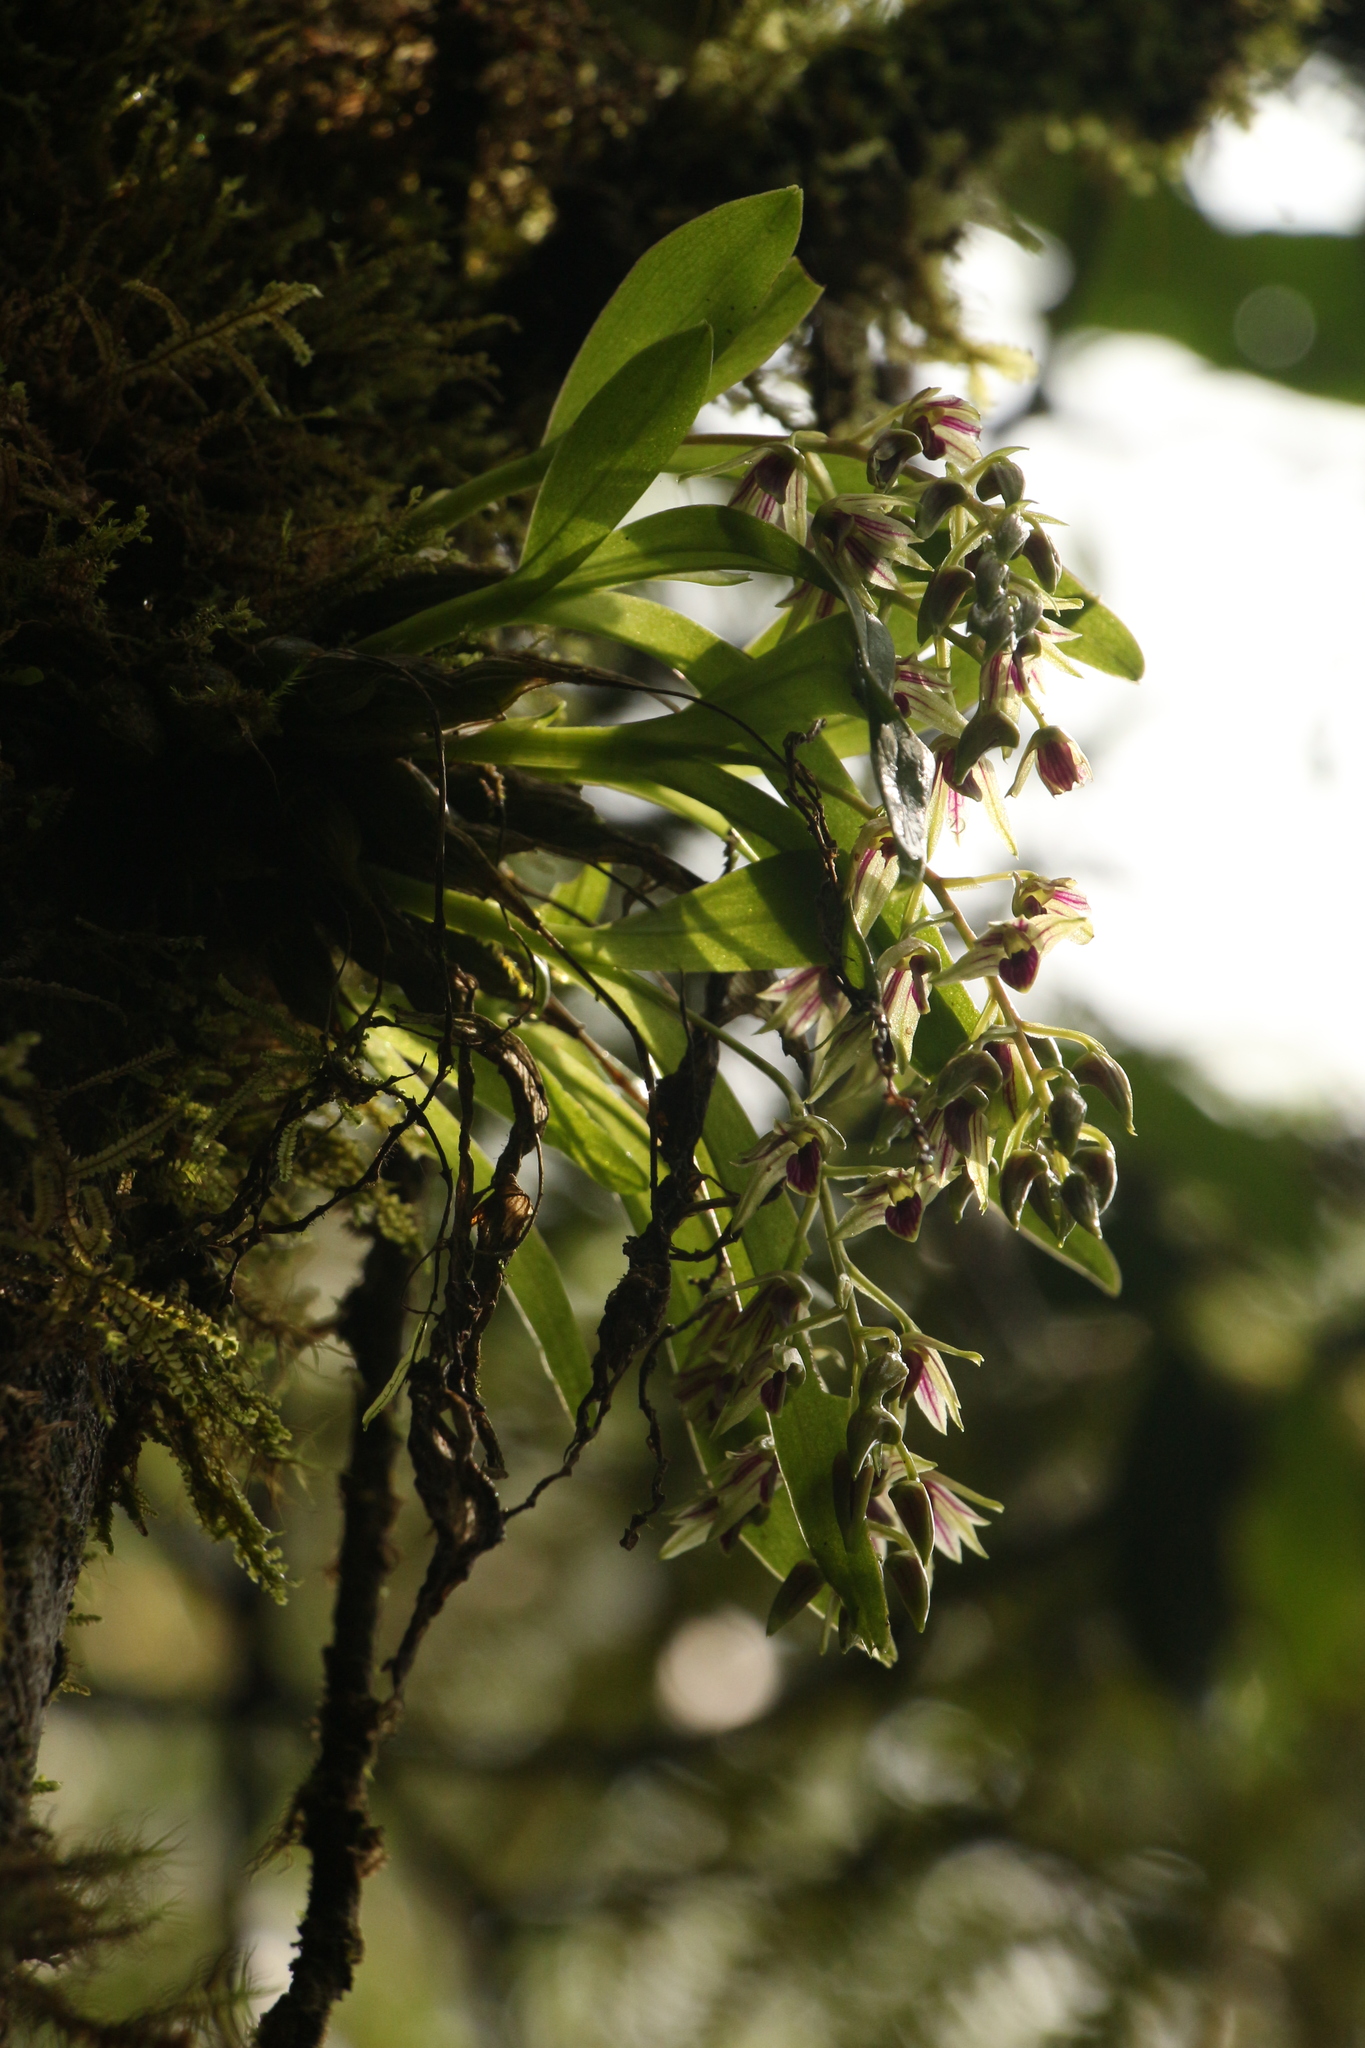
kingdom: Plantae
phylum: Tracheophyta
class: Liliopsida
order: Asparagales
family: Orchidaceae
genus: Dendrobium
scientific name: Dendrobium porphyrochilum
